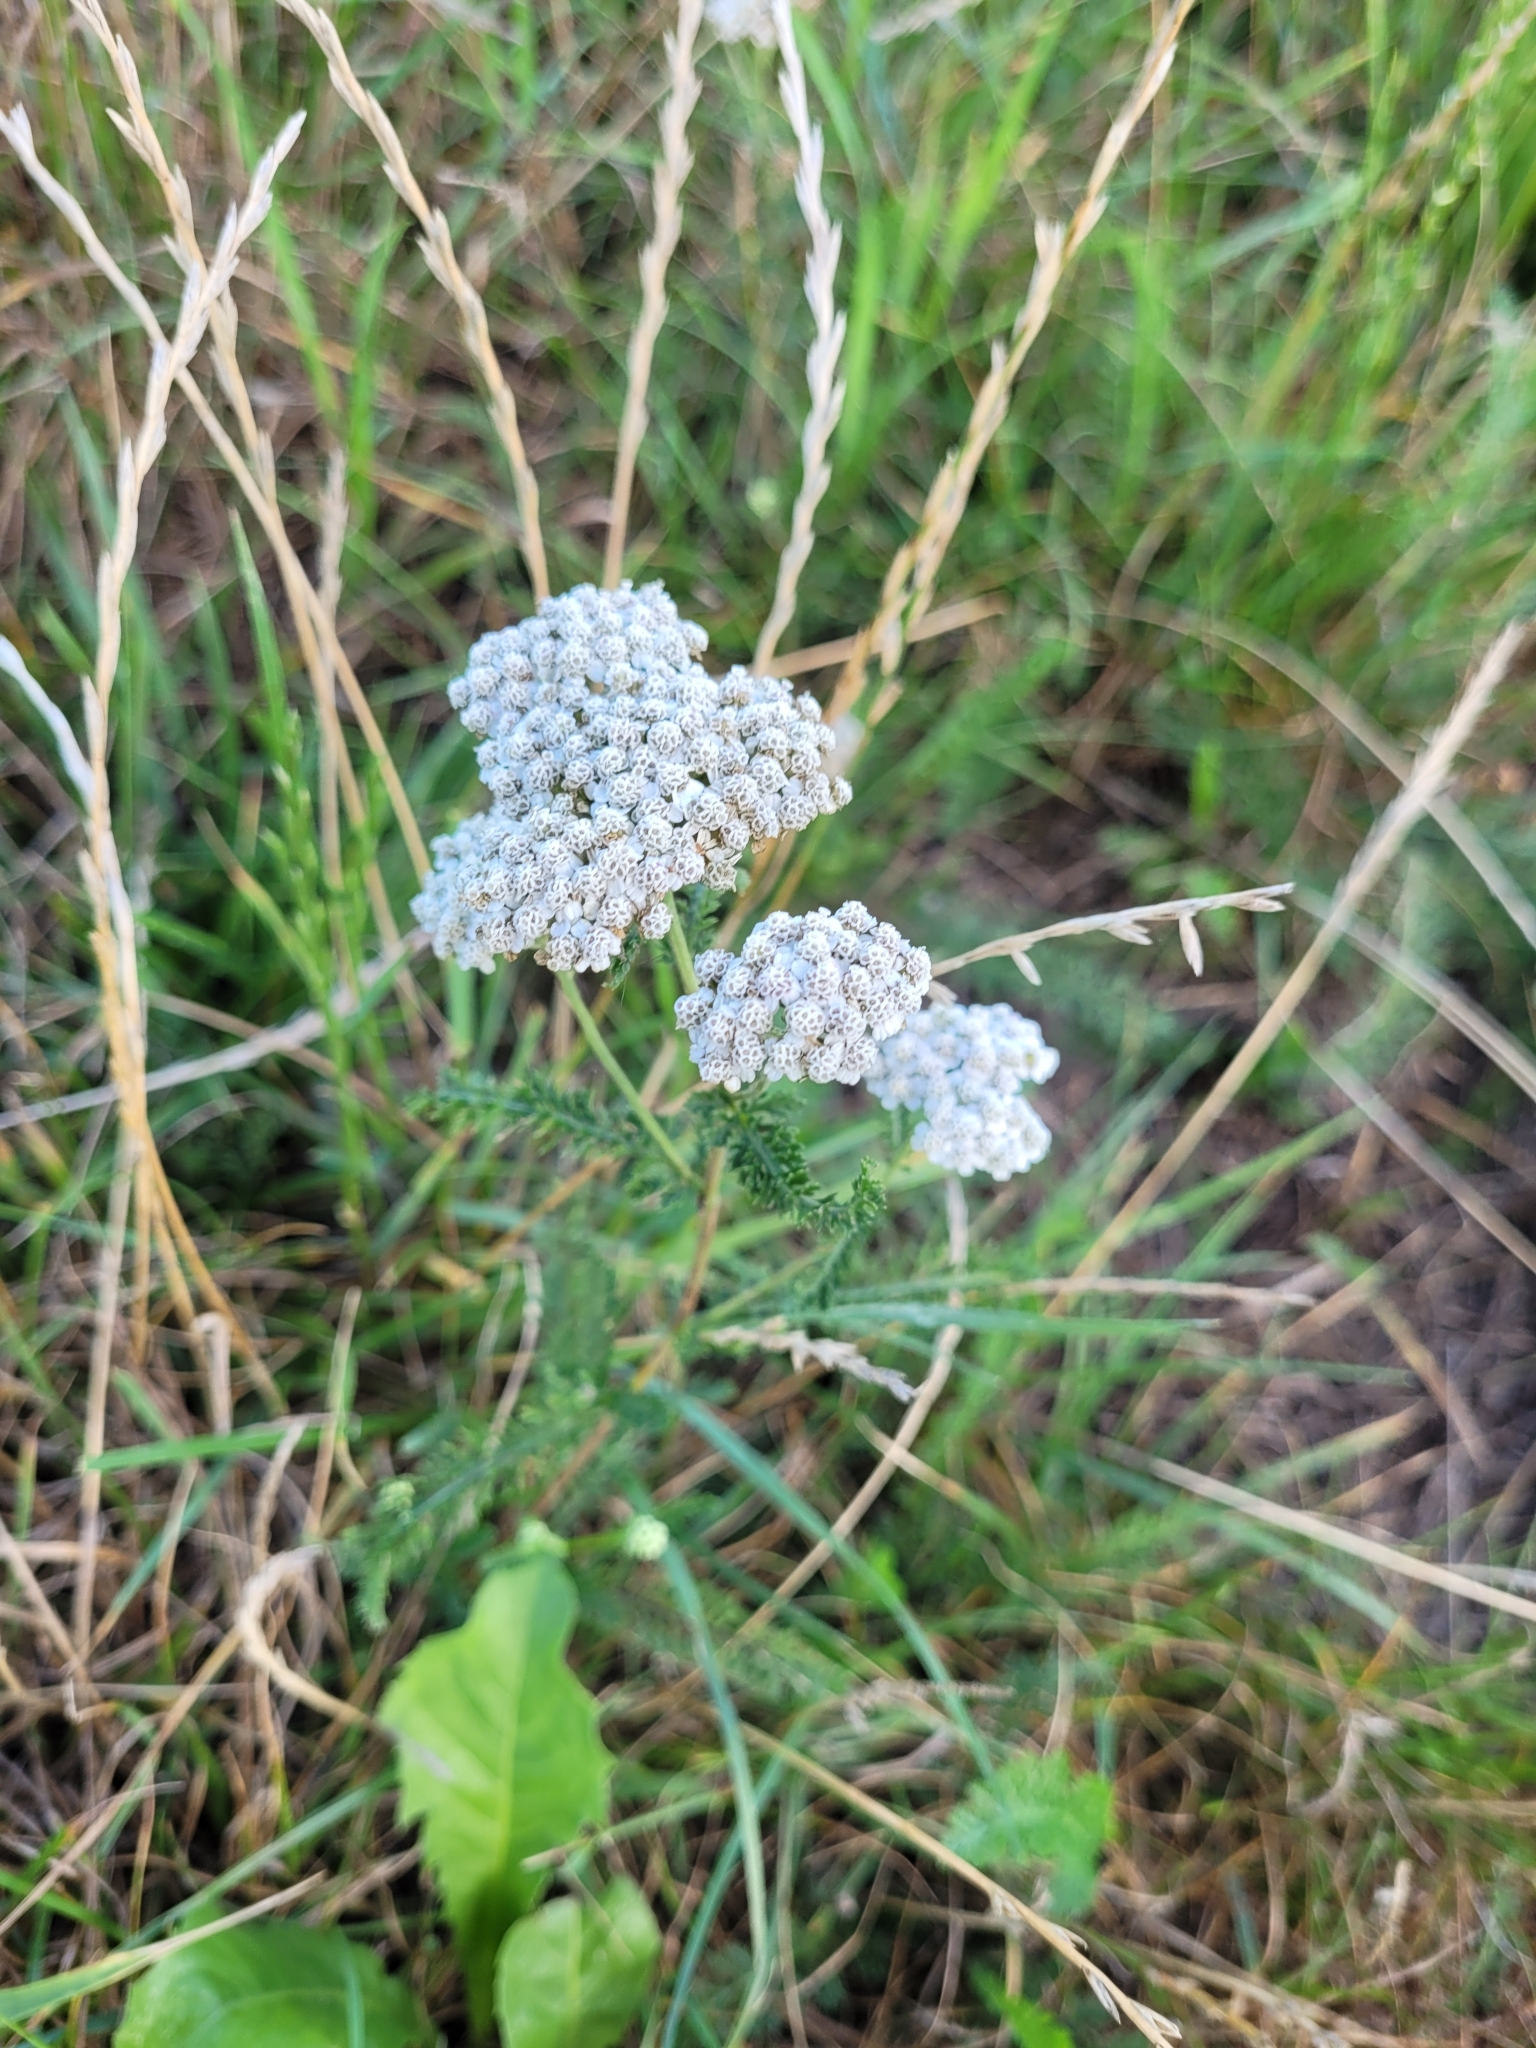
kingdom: Plantae
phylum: Tracheophyta
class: Magnoliopsida
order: Asterales
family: Asteraceae
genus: Achillea
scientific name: Achillea millefolium
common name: Yarrow
